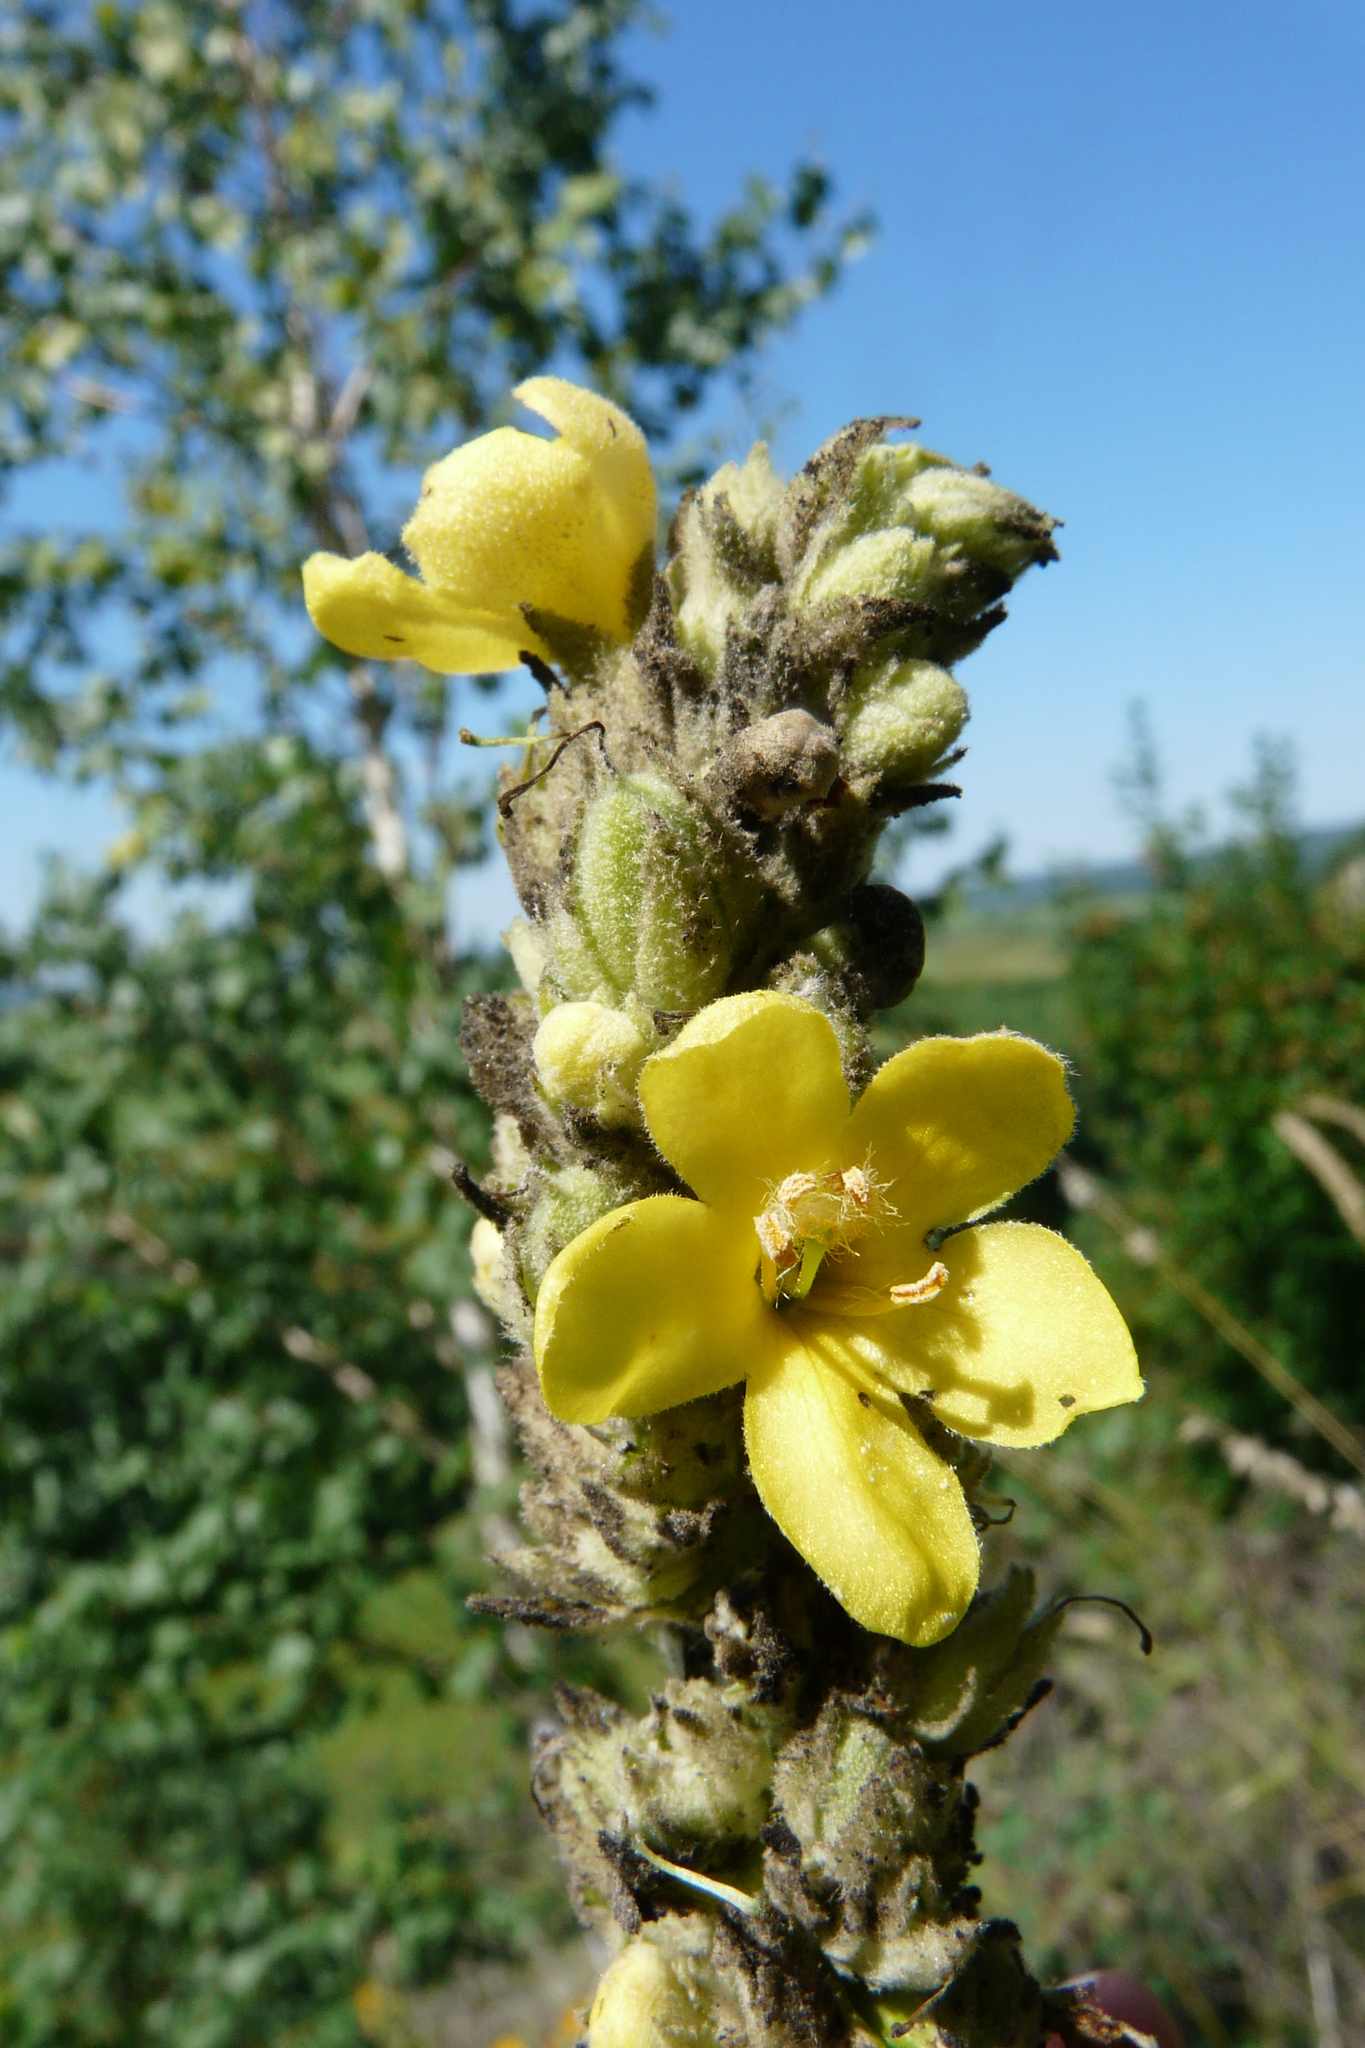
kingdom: Plantae
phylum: Tracheophyta
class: Magnoliopsida
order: Lamiales
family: Scrophulariaceae
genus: Verbascum
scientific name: Verbascum thapsus
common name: Common mullein
